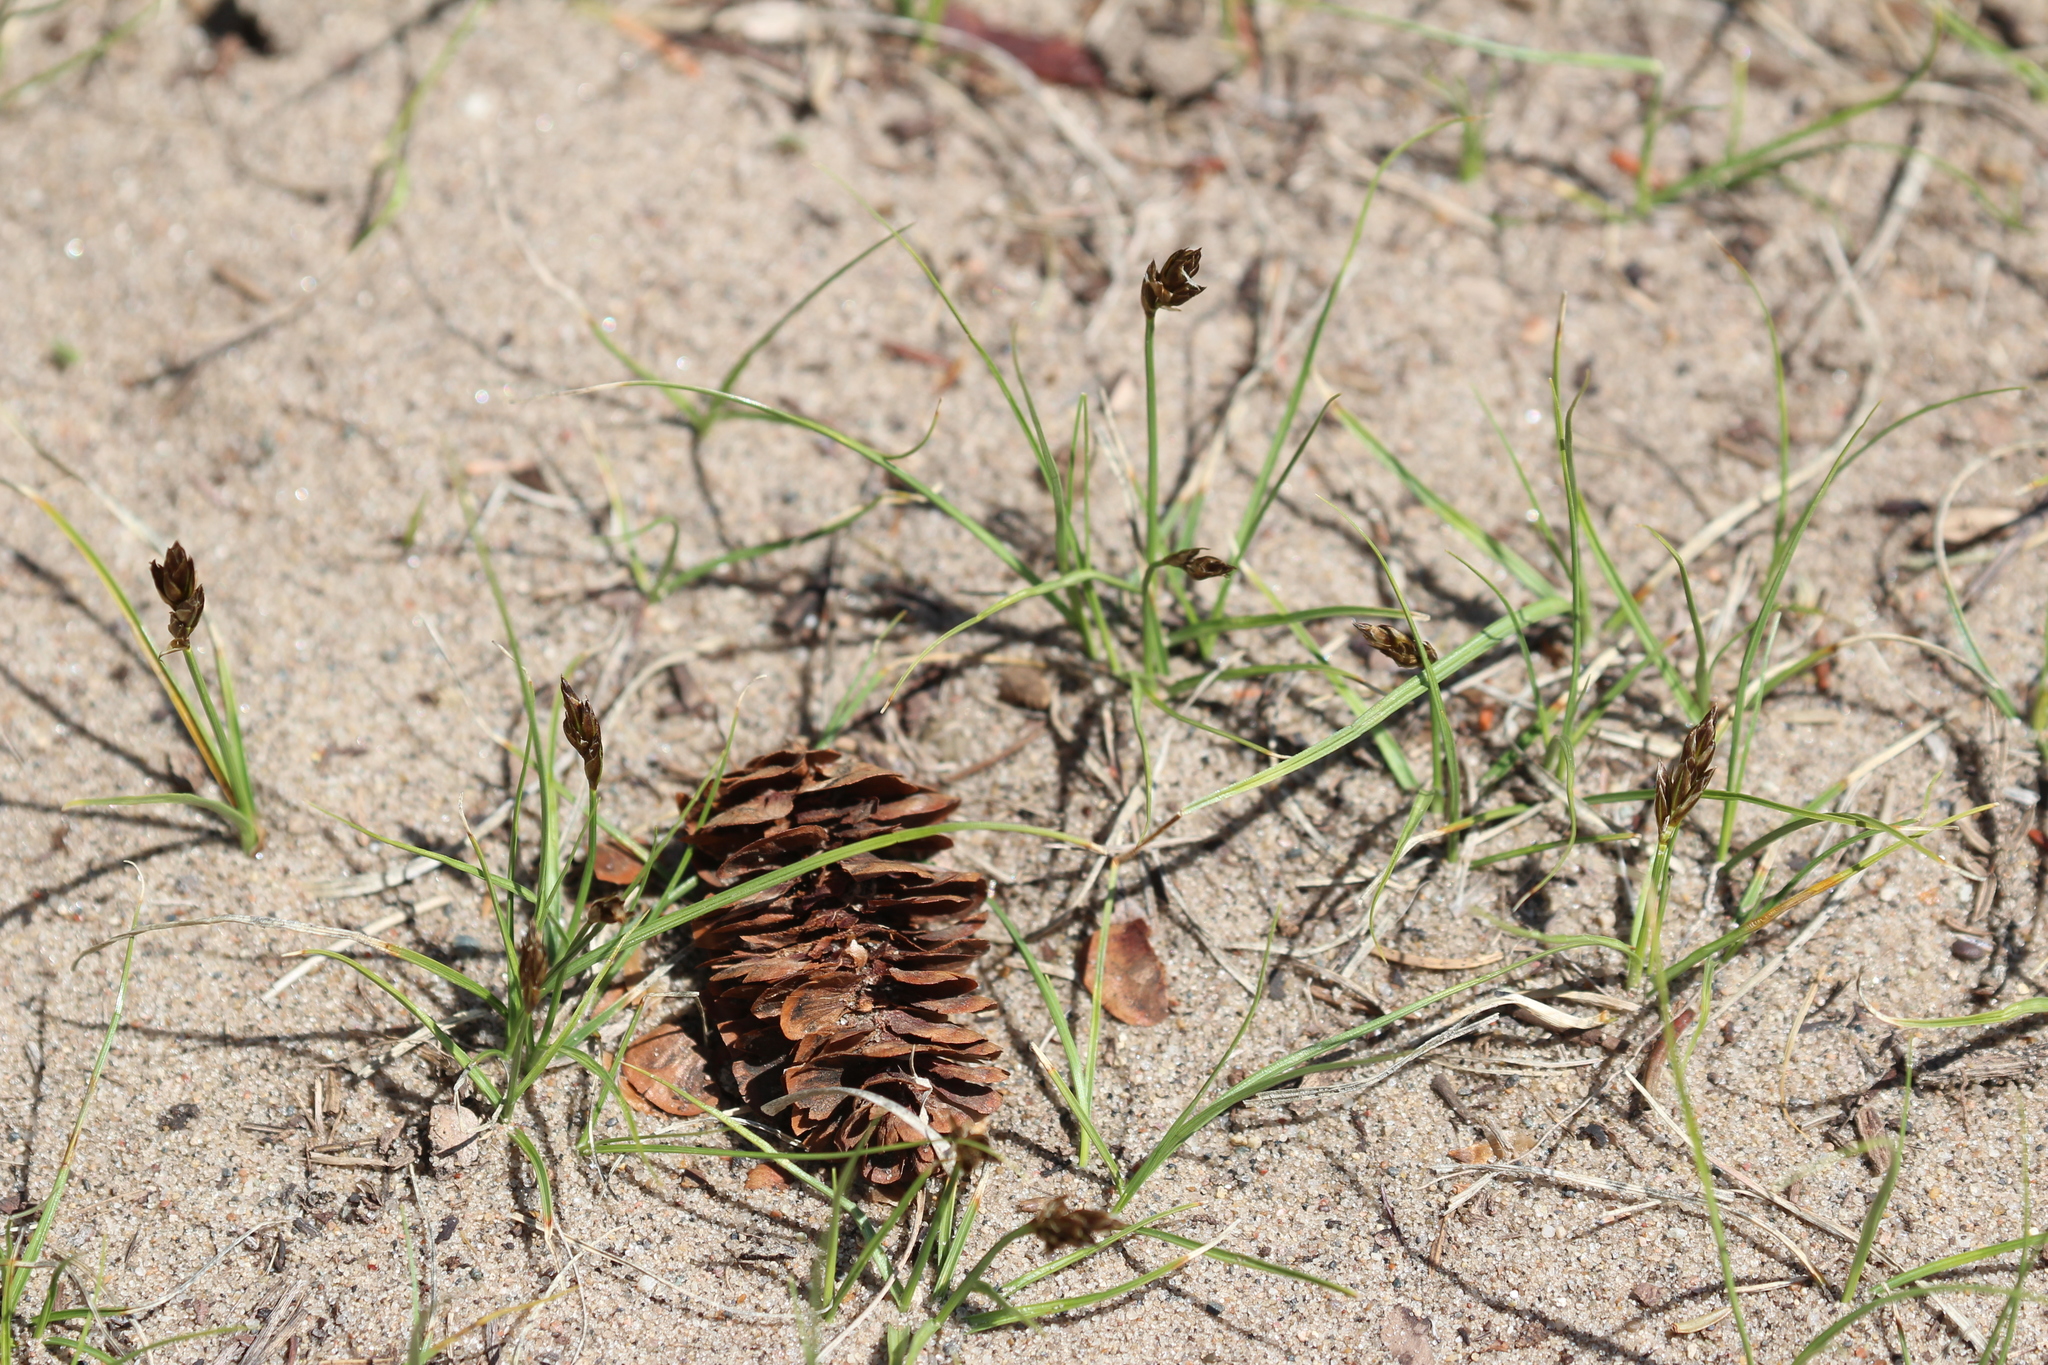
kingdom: Plantae
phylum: Tracheophyta
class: Liliopsida
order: Poales
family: Cyperaceae
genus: Carex
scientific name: Carex duriuscula
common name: Involute-leaved sedge
